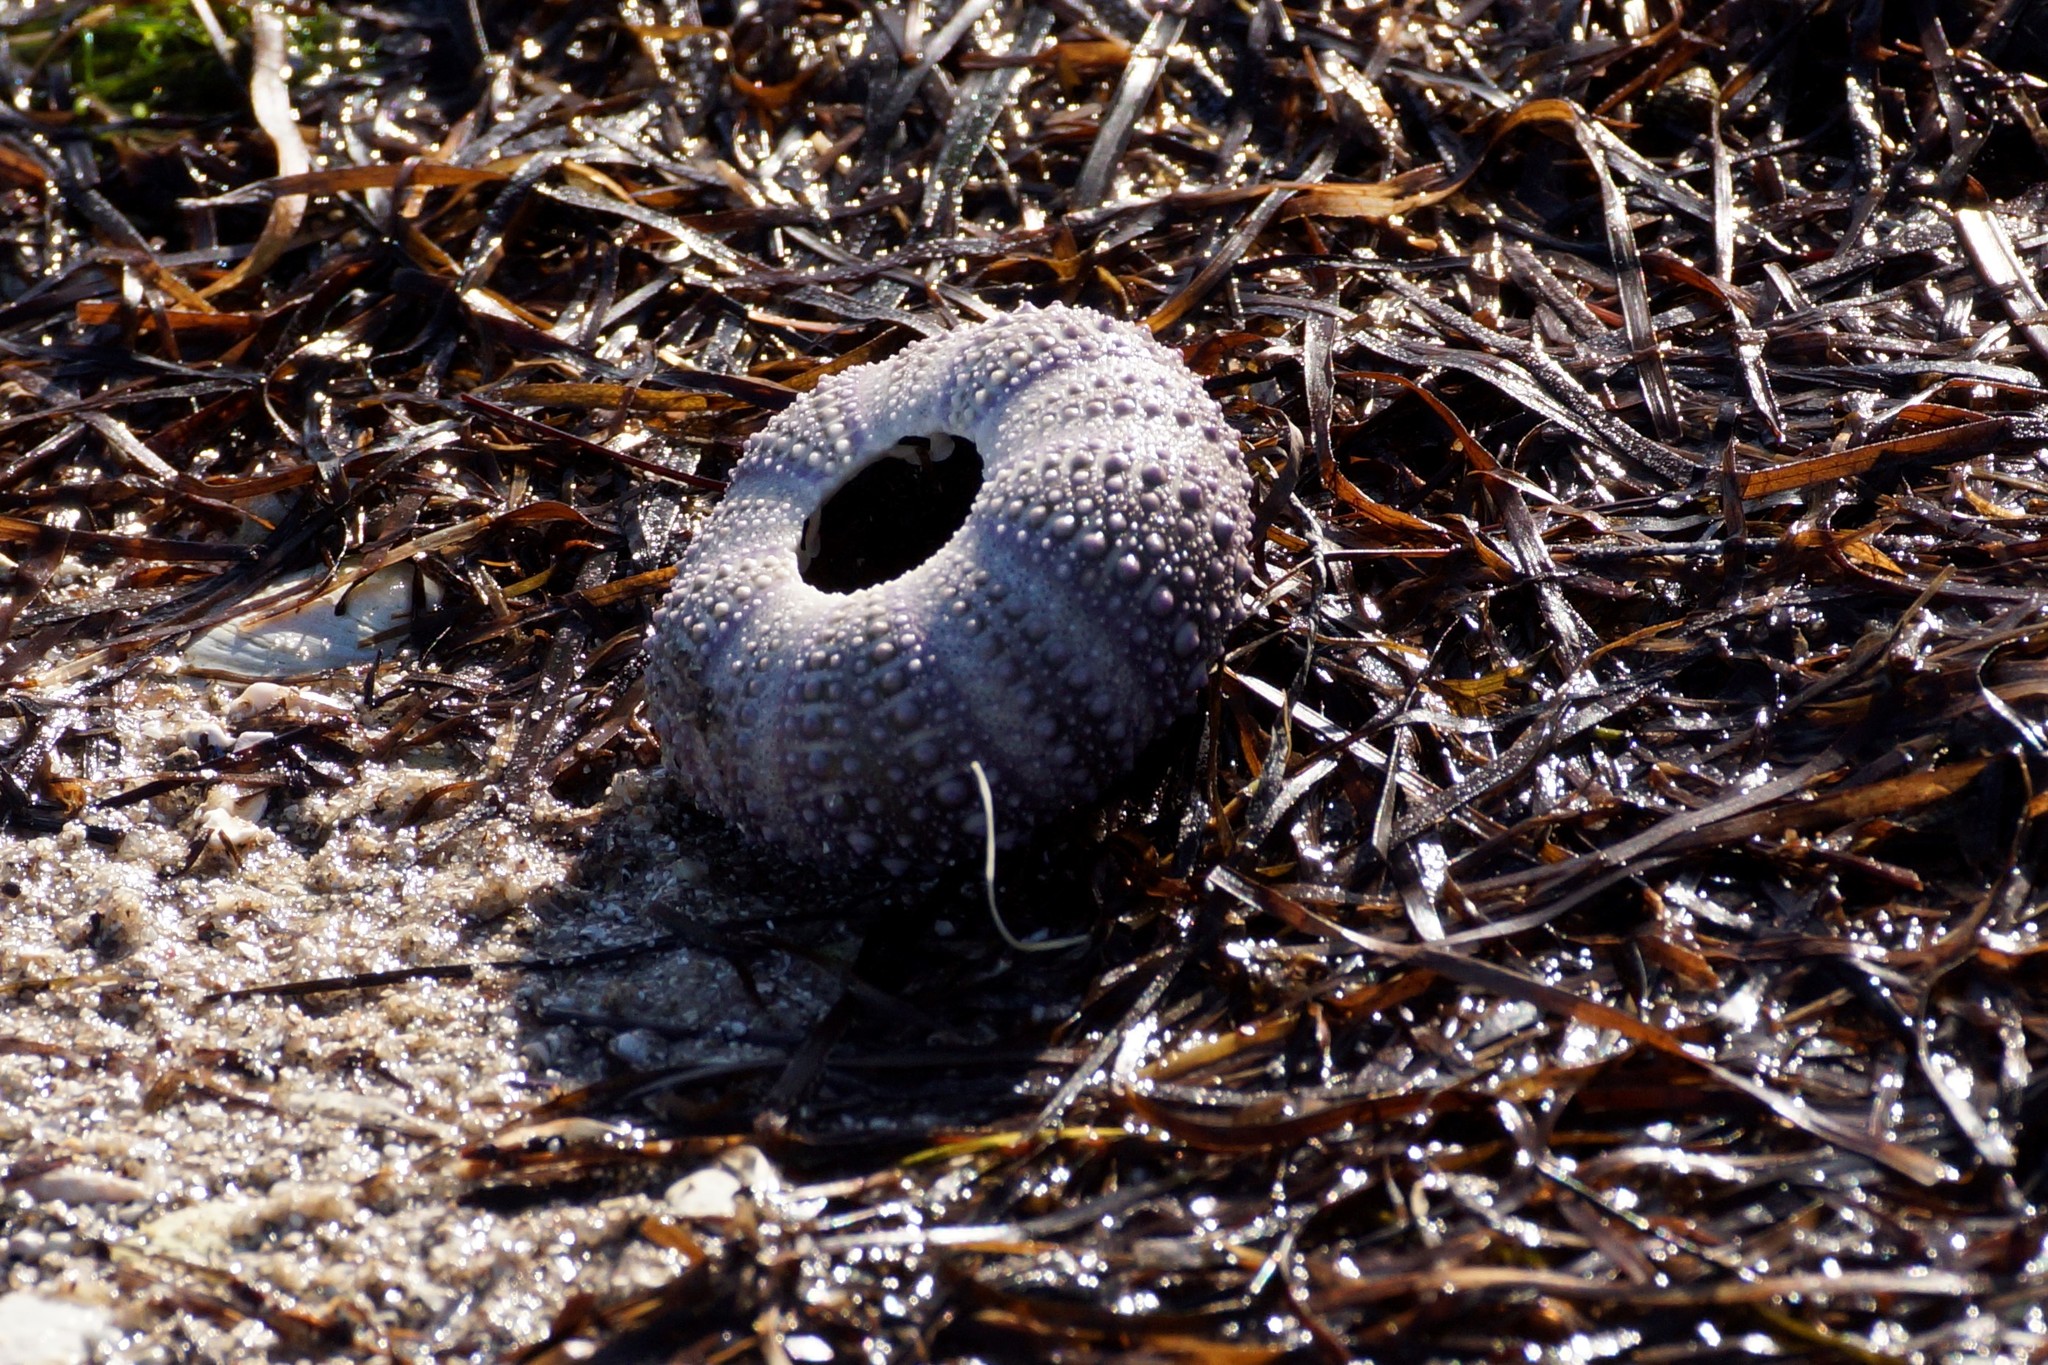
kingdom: Animalia
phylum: Echinodermata
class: Echinoidea
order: Camarodonta
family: Echinometridae
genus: Heliocidaris
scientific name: Heliocidaris erythrogramma
